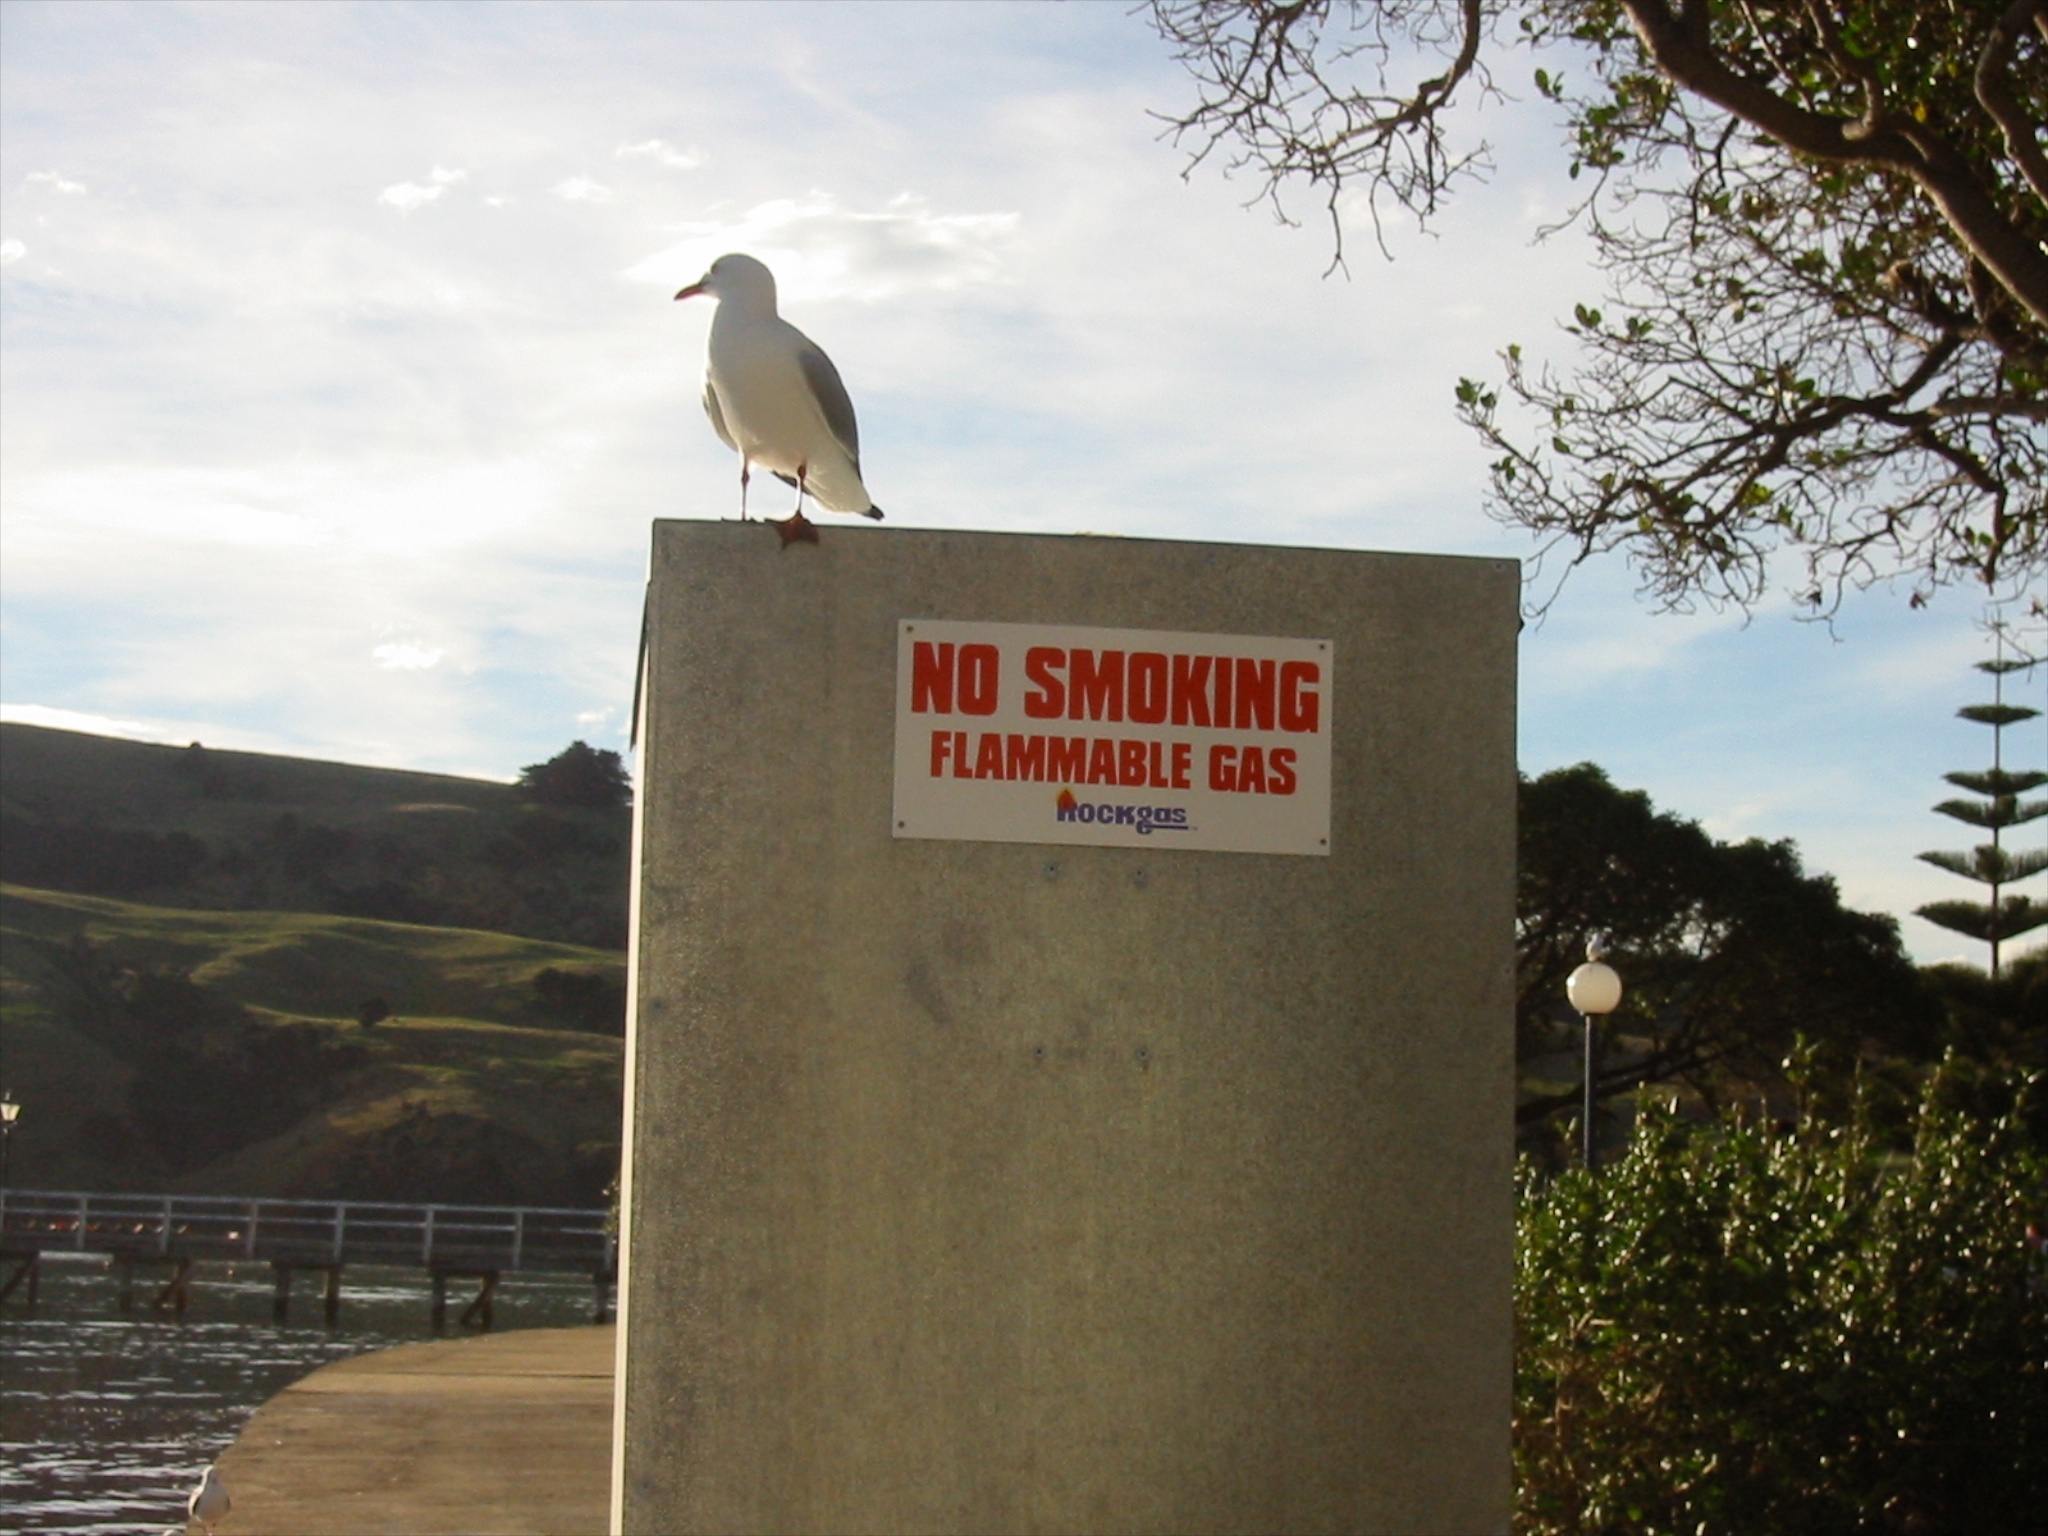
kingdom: Animalia
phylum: Chordata
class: Aves
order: Charadriiformes
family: Laridae
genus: Chroicocephalus
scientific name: Chroicocephalus novaehollandiae
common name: Silver gull
